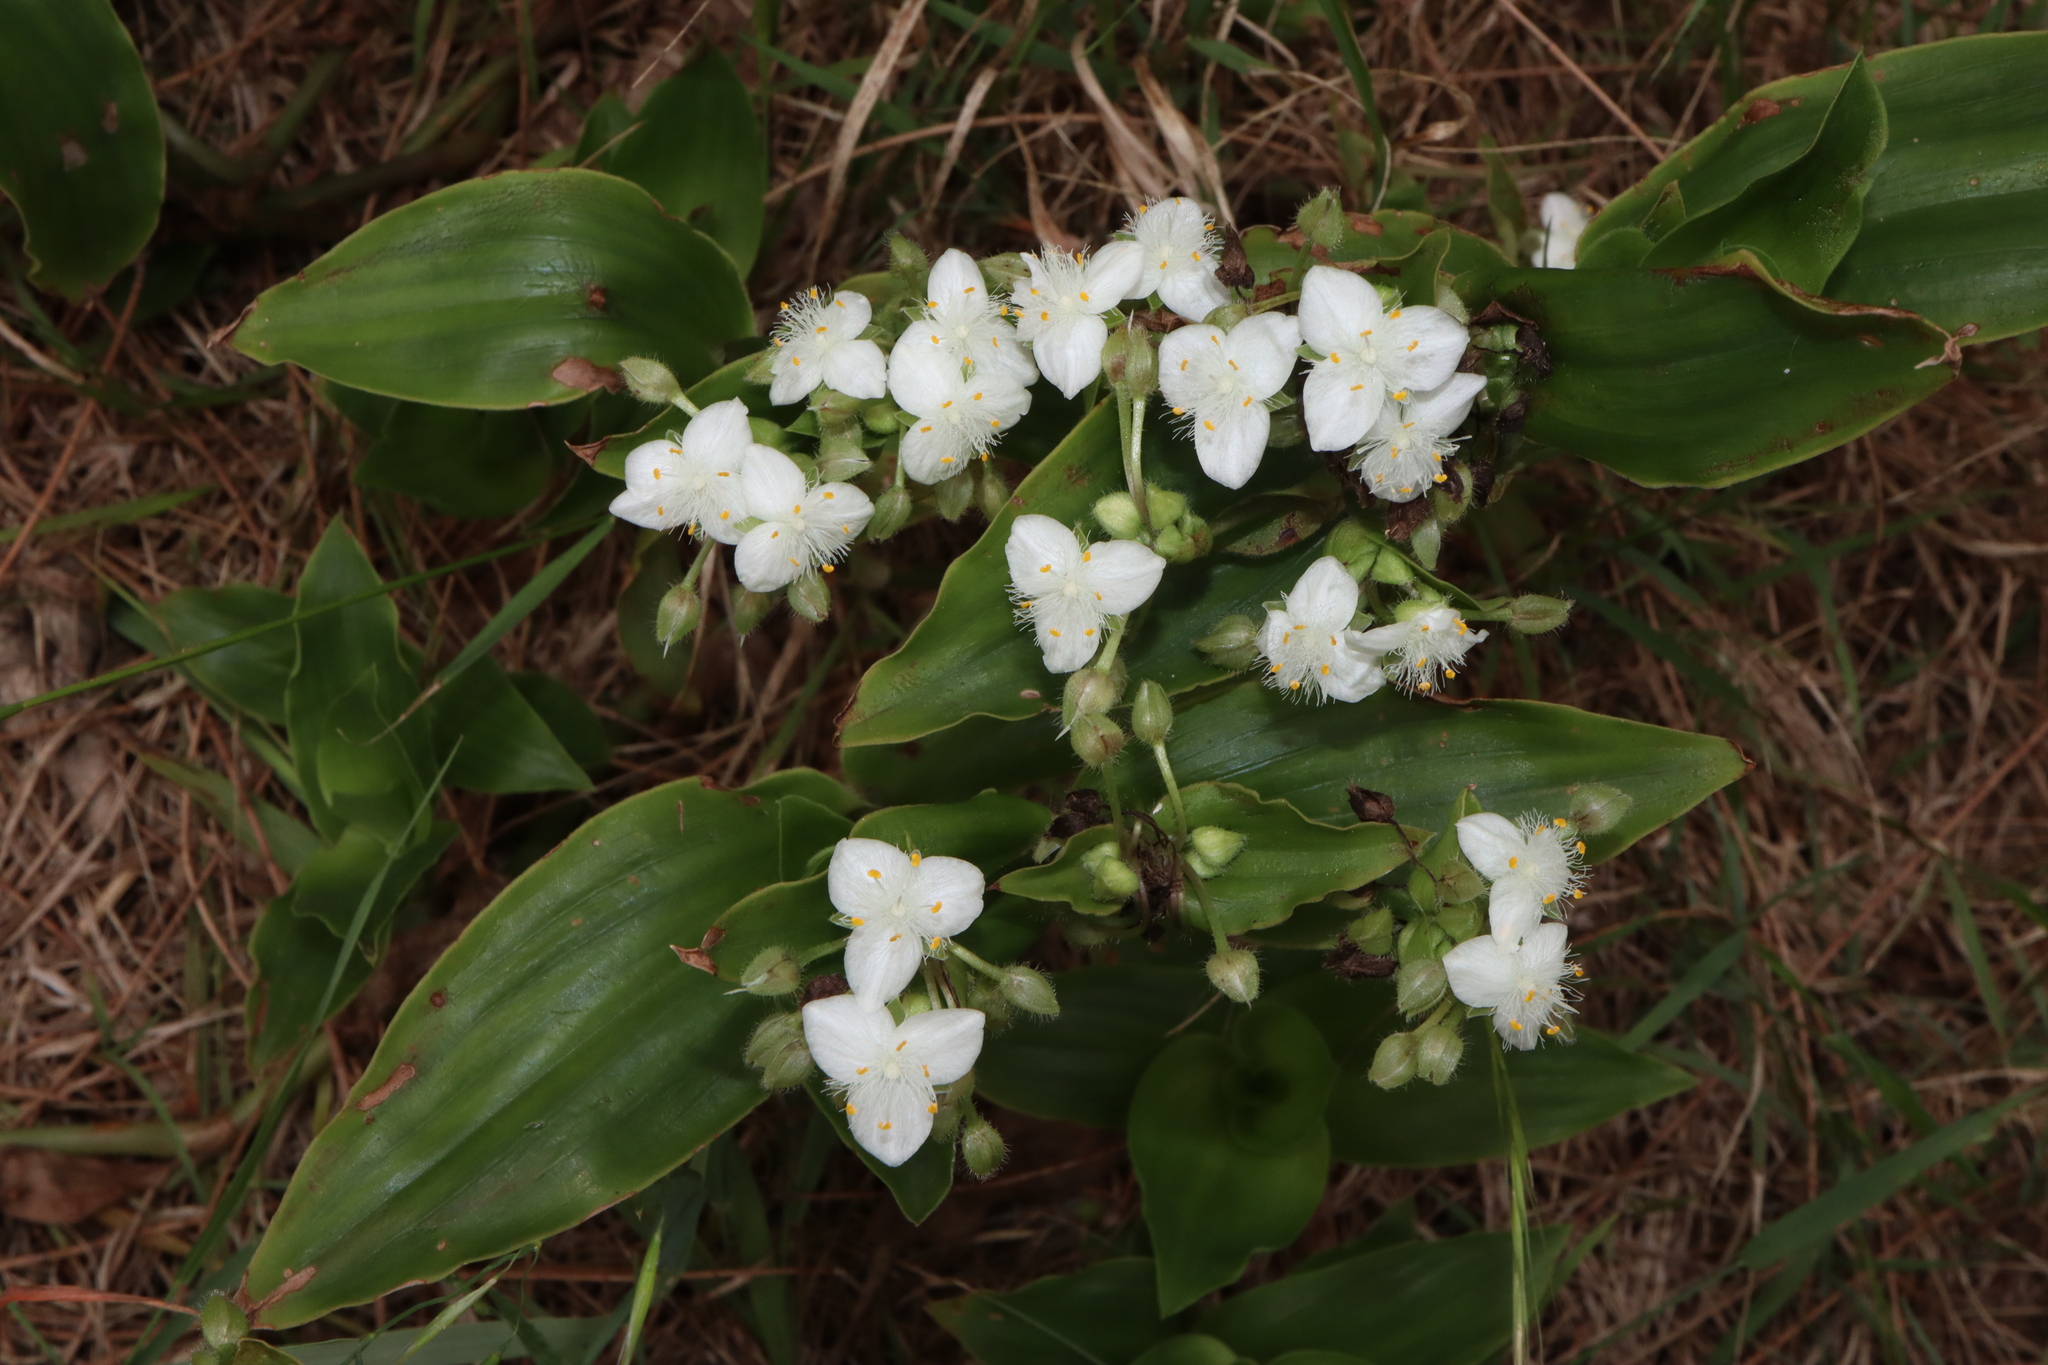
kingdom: Plantae
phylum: Tracheophyta
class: Liliopsida
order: Commelinales
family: Commelinaceae
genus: Tradescantia
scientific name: Tradescantia crassula
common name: Succulent spiderwort
